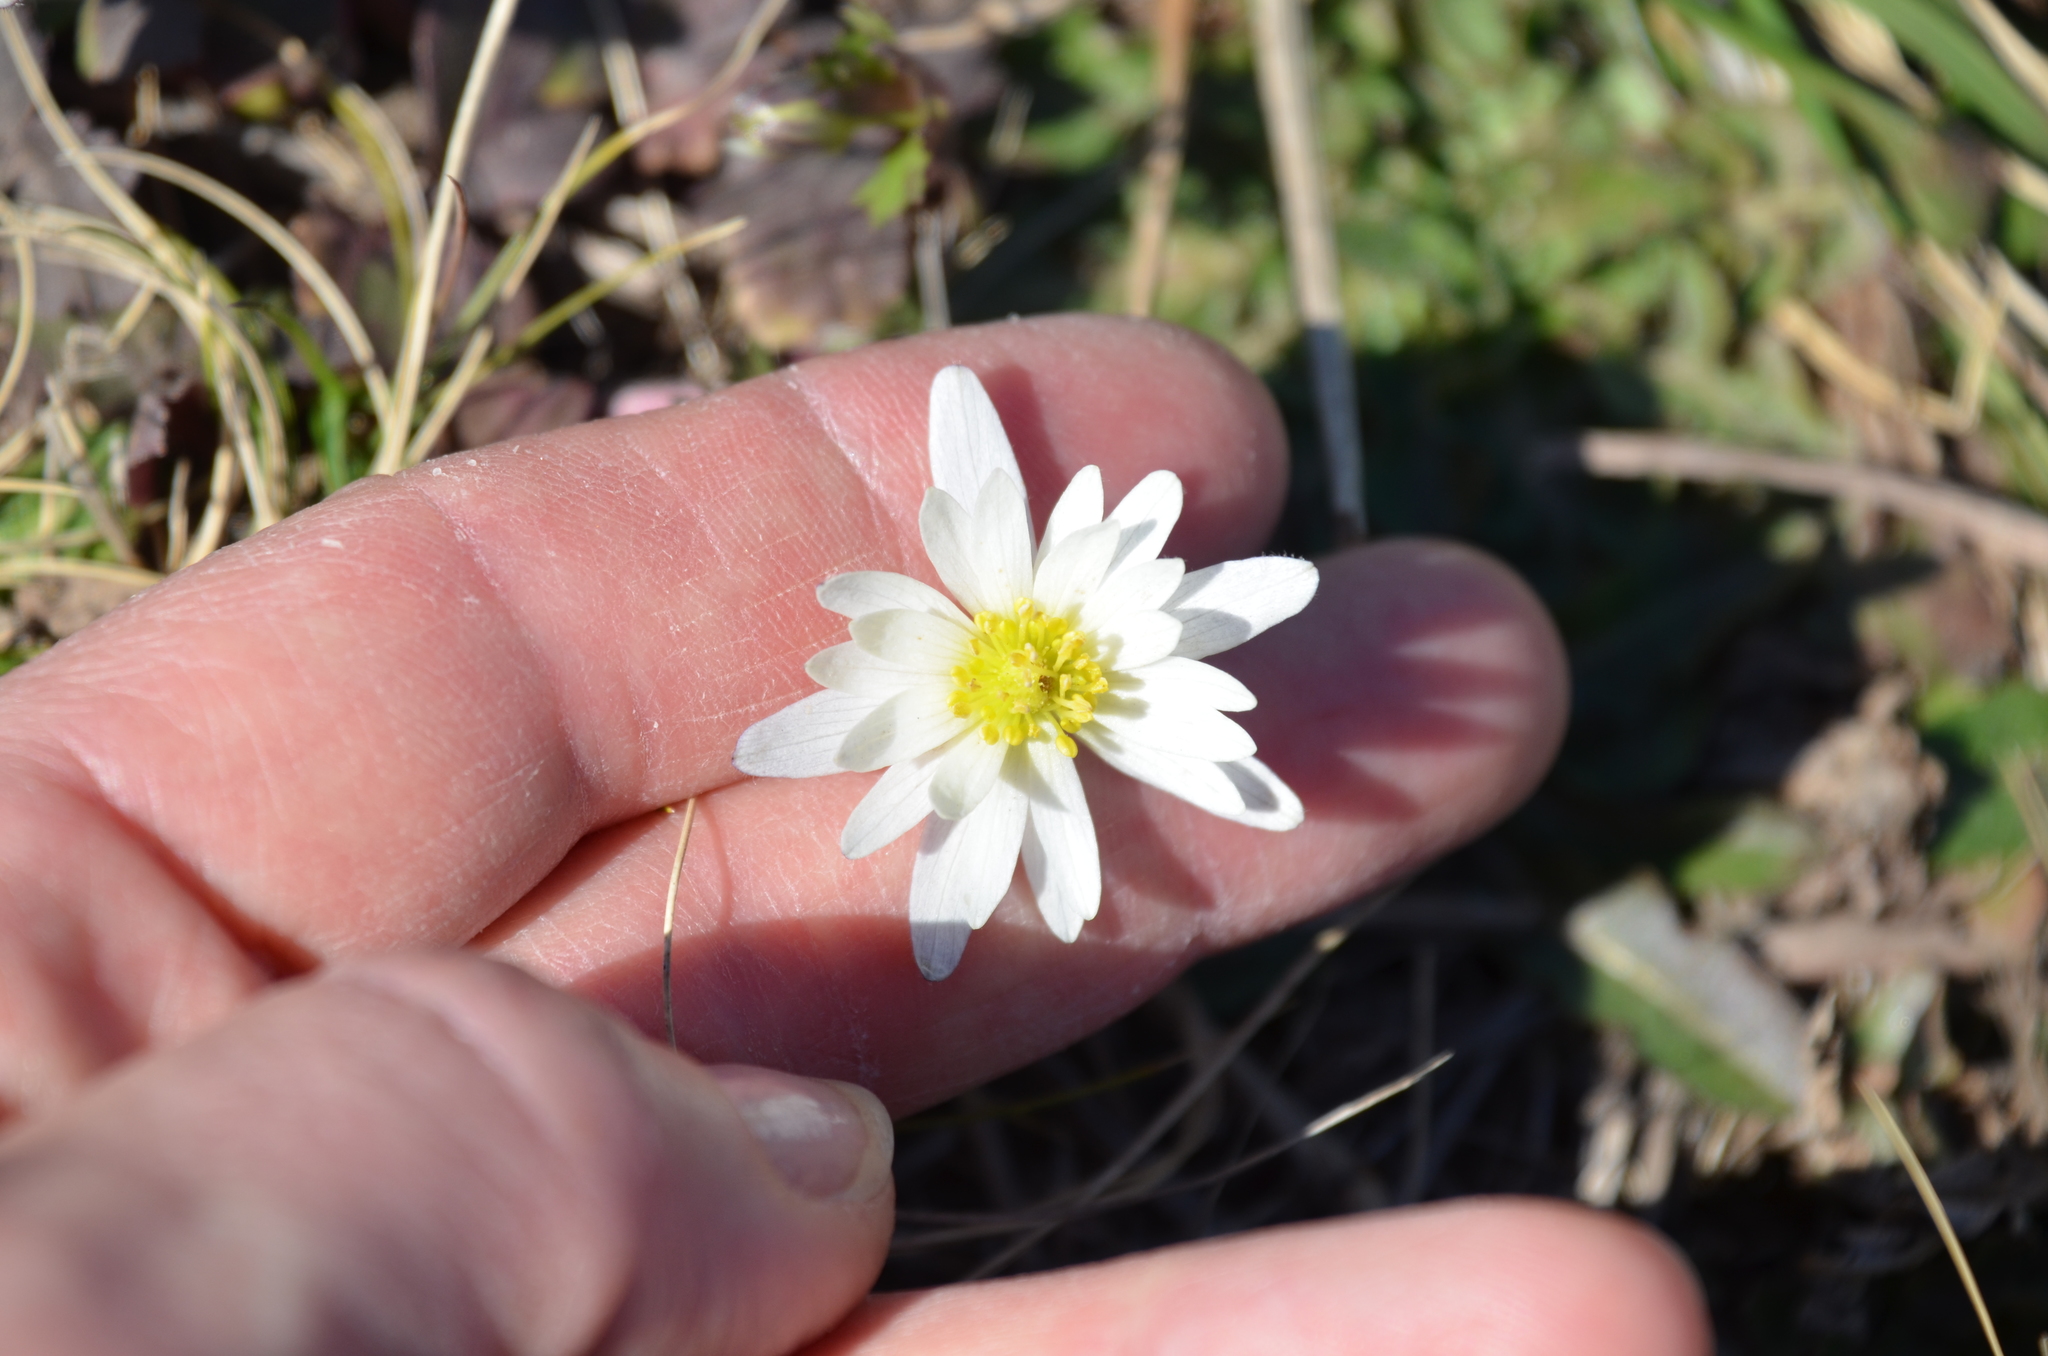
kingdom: Plantae
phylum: Tracheophyta
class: Magnoliopsida
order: Ranunculales
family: Ranunculaceae
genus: Anemone
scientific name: Anemone decapetala
